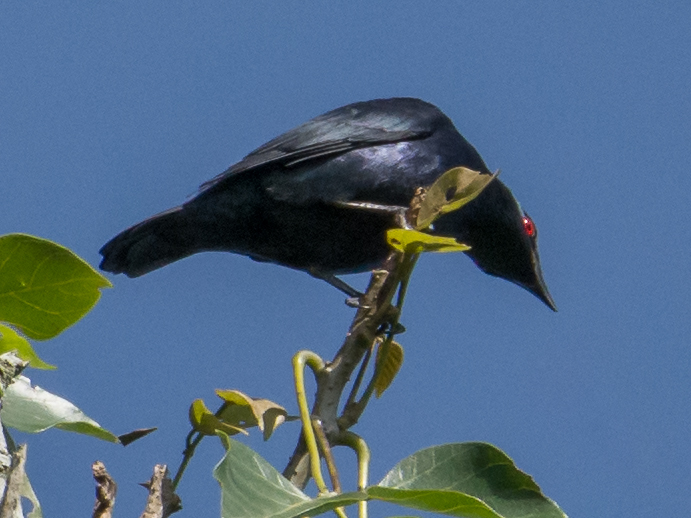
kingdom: Animalia
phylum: Chordata
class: Aves
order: Passeriformes
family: Sturnidae
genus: Aplonis
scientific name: Aplonis panayensis
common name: Asian glossy starling
